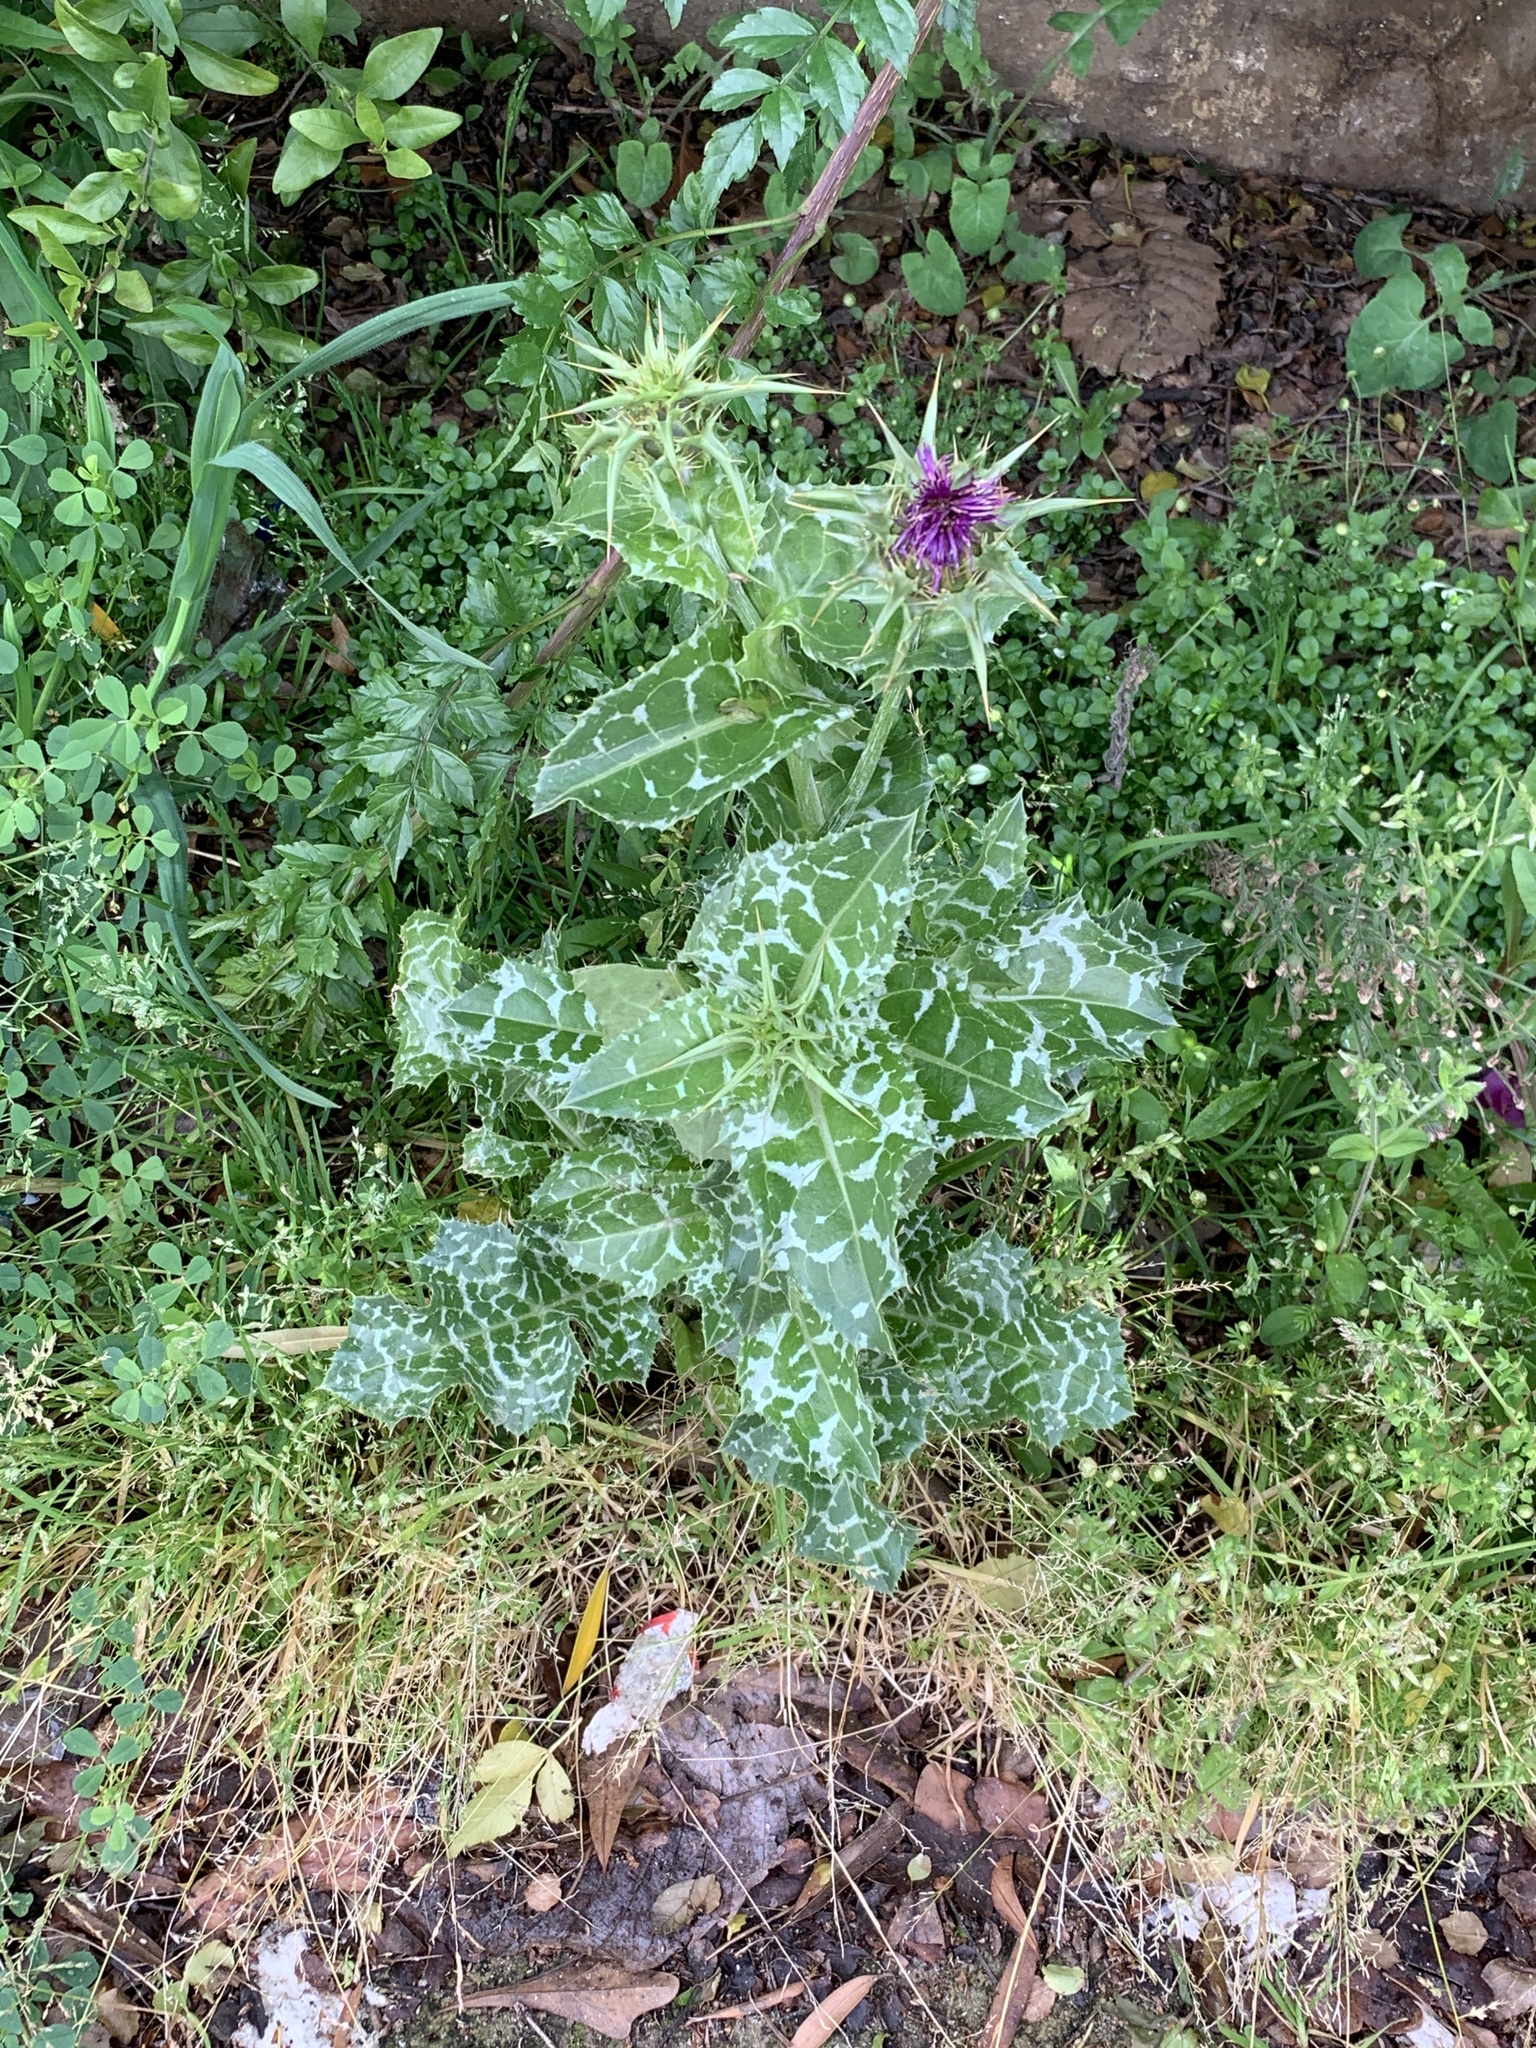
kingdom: Plantae
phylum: Tracheophyta
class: Magnoliopsida
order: Asterales
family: Asteraceae
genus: Silybum
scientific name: Silybum marianum
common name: Milk thistle
